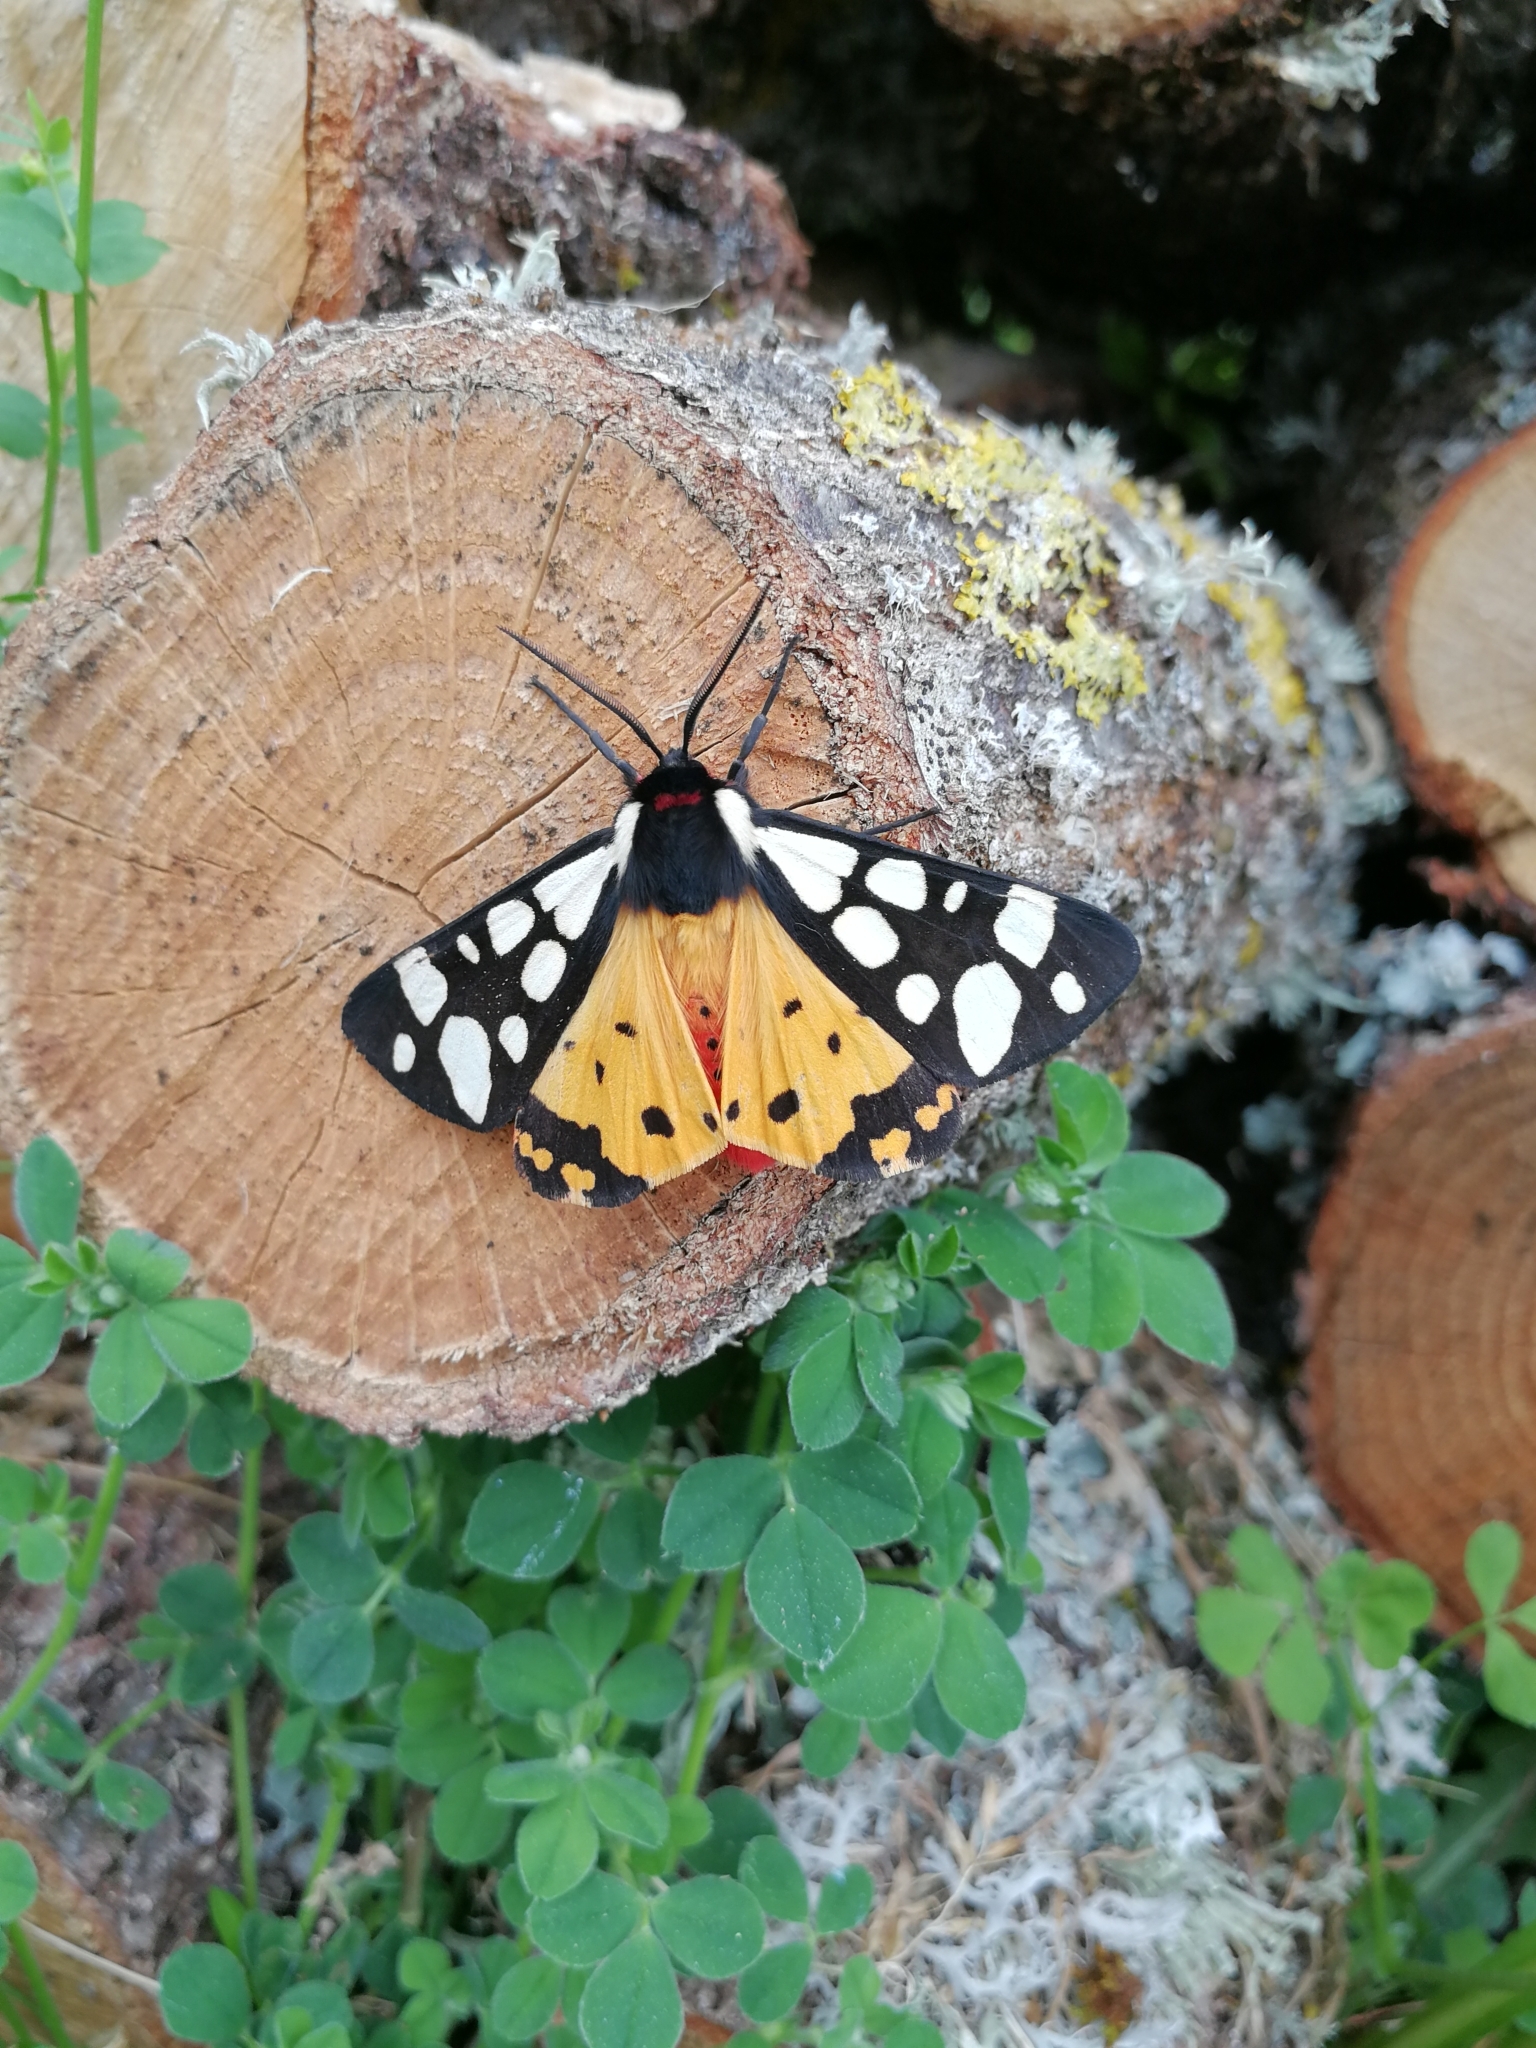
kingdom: Animalia
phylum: Arthropoda
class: Insecta
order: Lepidoptera
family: Erebidae
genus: Epicallia
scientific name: Epicallia villica
